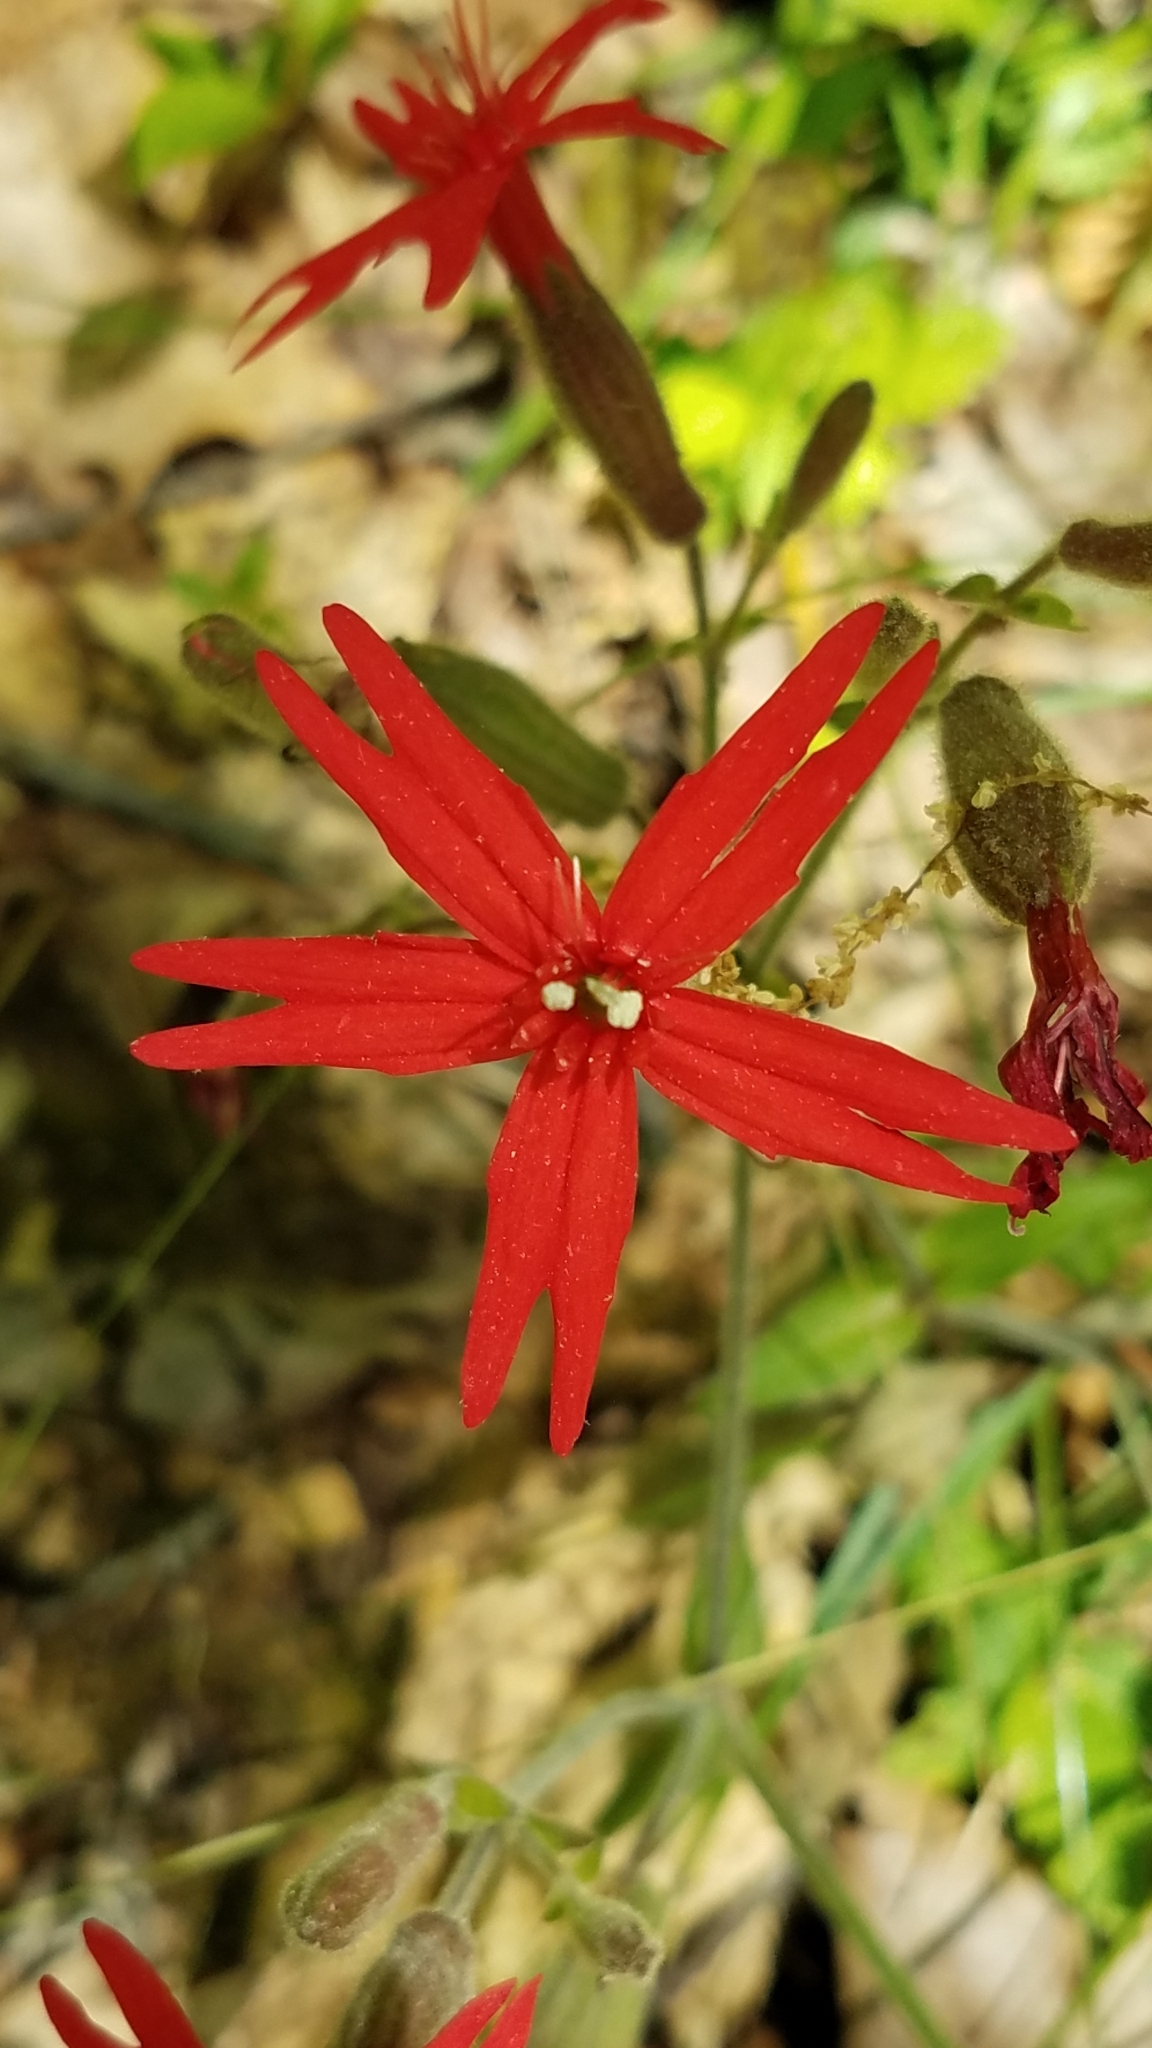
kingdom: Plantae
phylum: Tracheophyta
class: Magnoliopsida
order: Caryophyllales
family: Caryophyllaceae
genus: Silene
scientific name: Silene virginica
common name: Fire-pink
